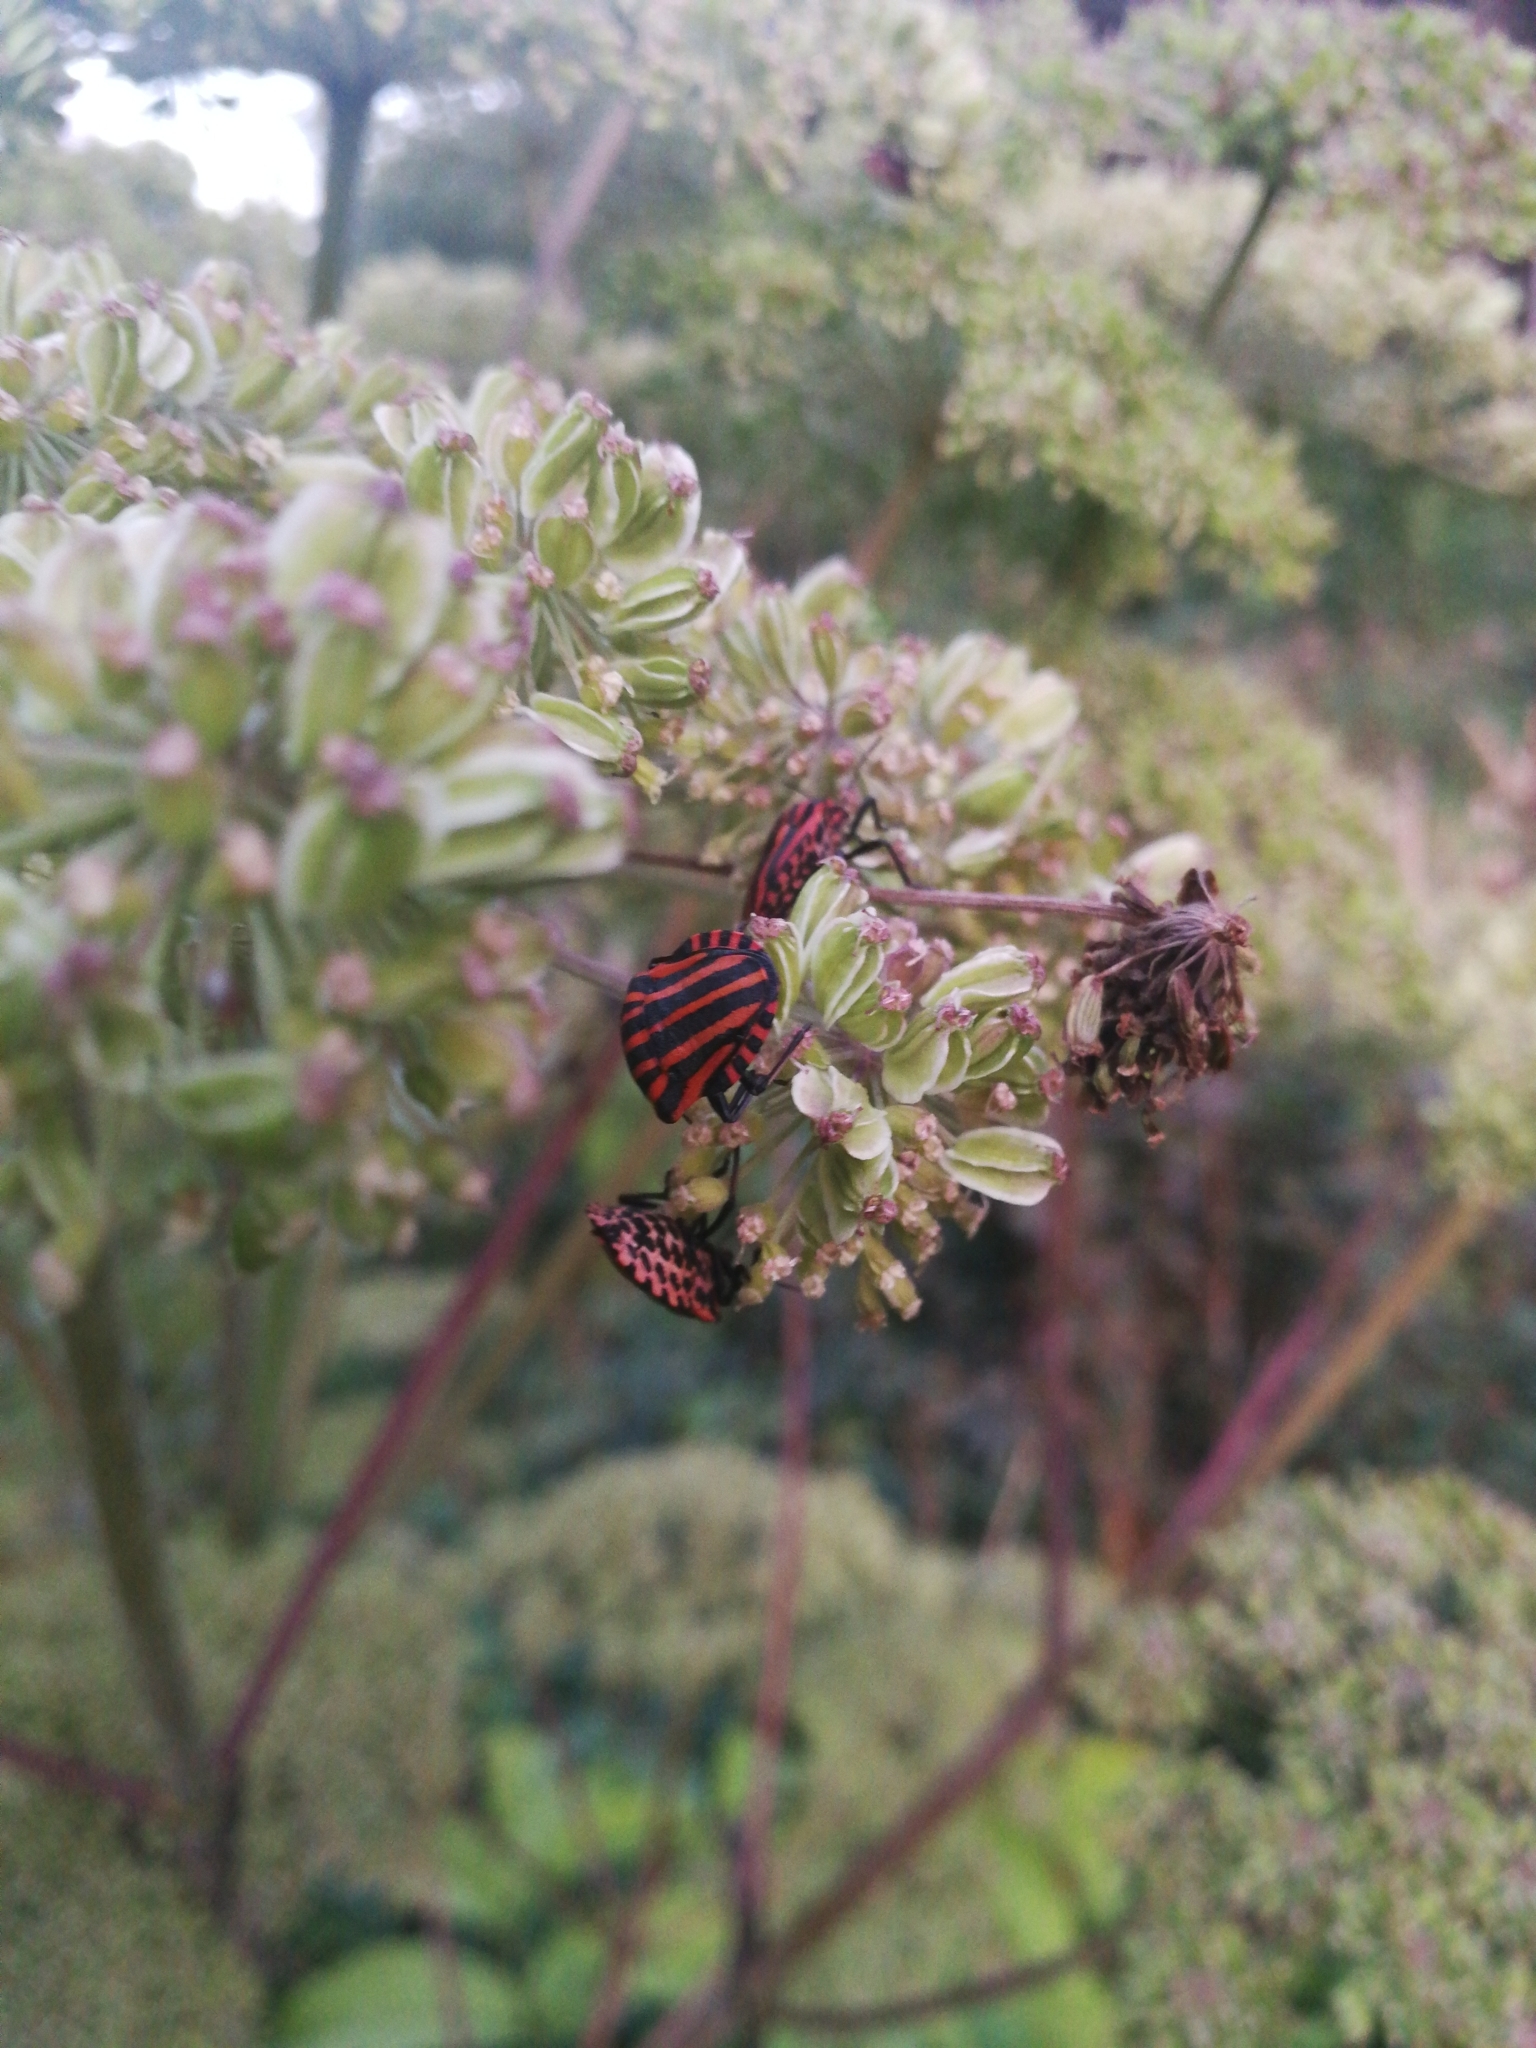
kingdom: Animalia
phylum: Arthropoda
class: Insecta
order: Hemiptera
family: Pentatomidae
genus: Graphosoma
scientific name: Graphosoma italicum
